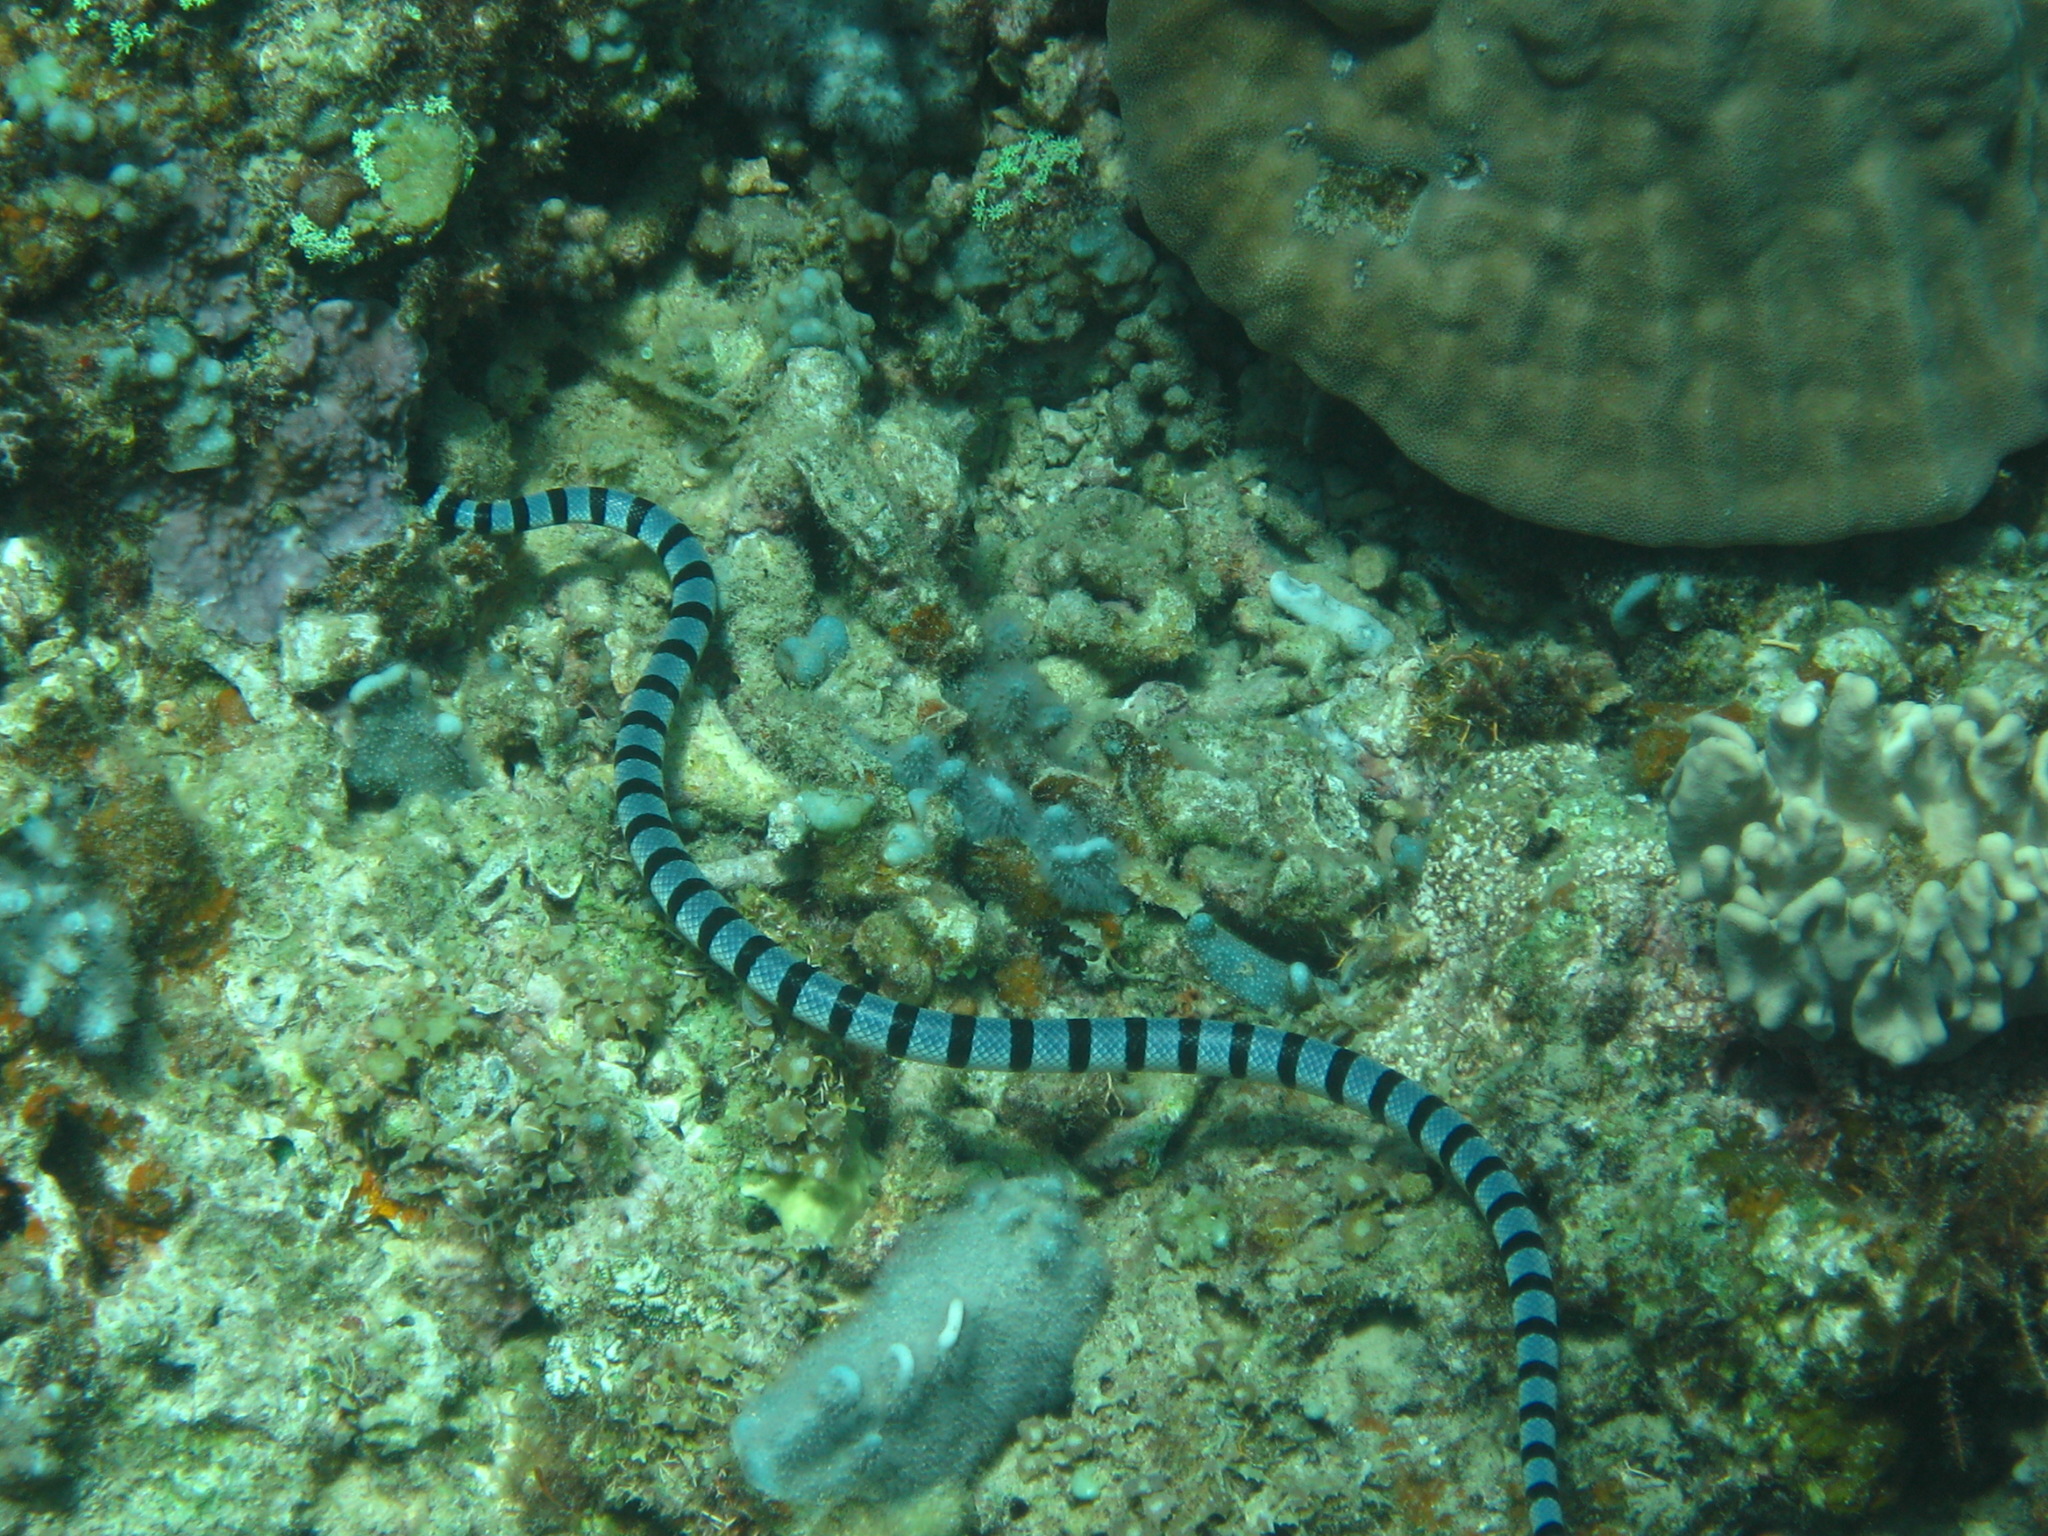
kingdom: Animalia
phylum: Chordata
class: Squamata
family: Elapidae
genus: Laticauda
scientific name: Laticauda colubrina
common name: Yellow-lipped sea krait
